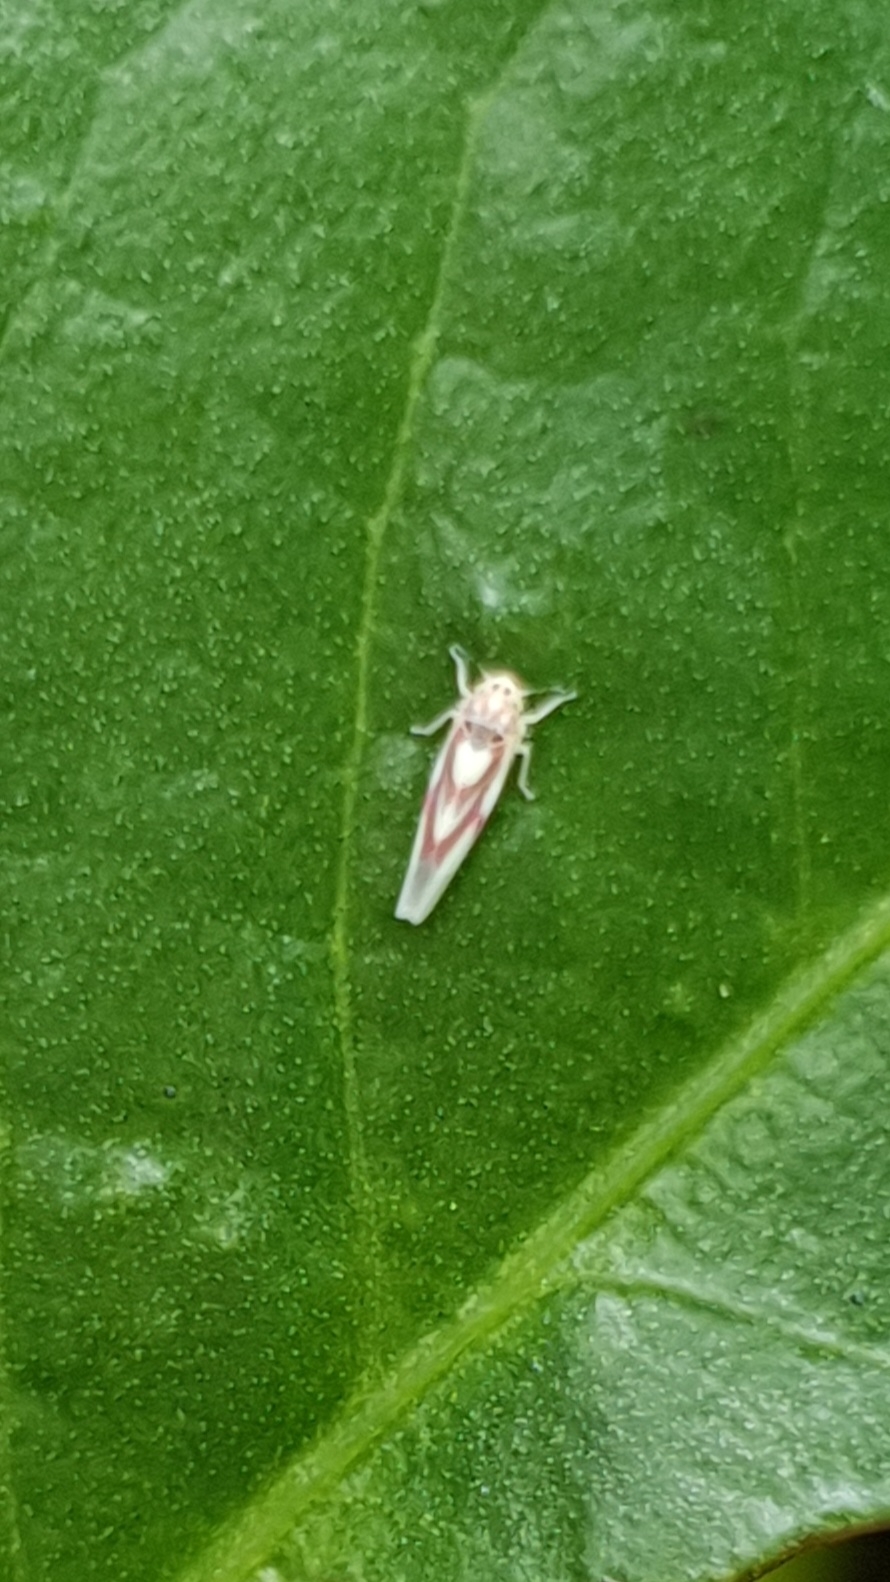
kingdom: Animalia
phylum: Arthropoda
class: Insecta
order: Hemiptera
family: Cicadellidae
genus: Zygina
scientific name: Zygina lunaris
